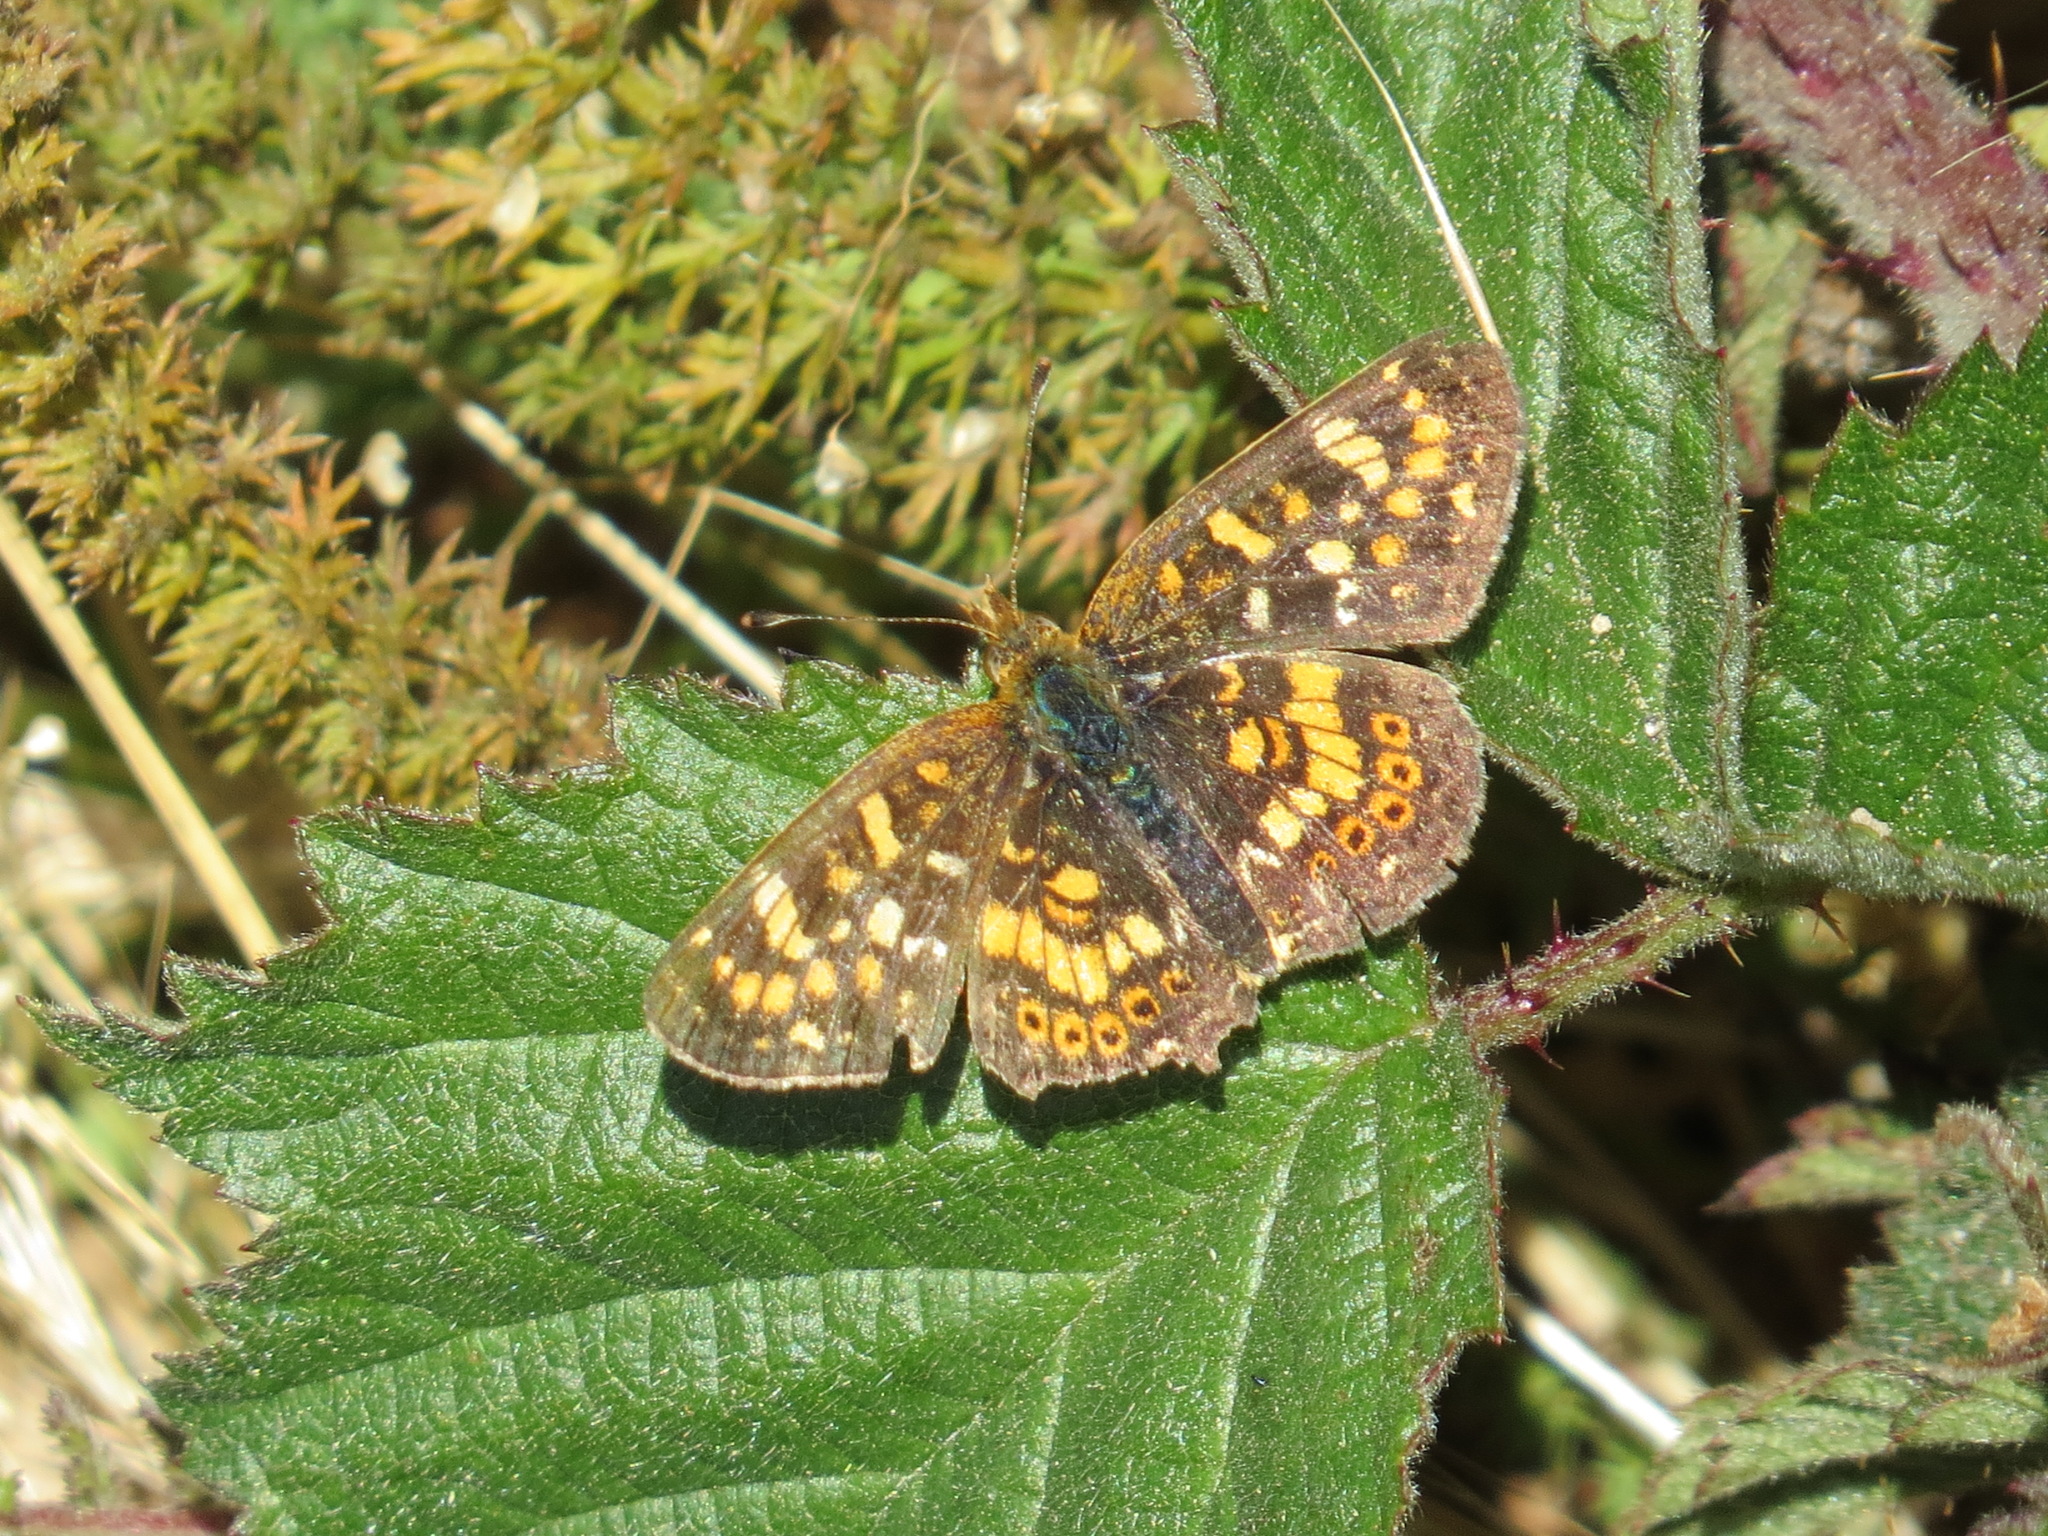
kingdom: Animalia
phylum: Arthropoda
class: Insecta
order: Lepidoptera
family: Nymphalidae
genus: Phyciodes
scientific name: Phyciodes tharos
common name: Pearl crescent
